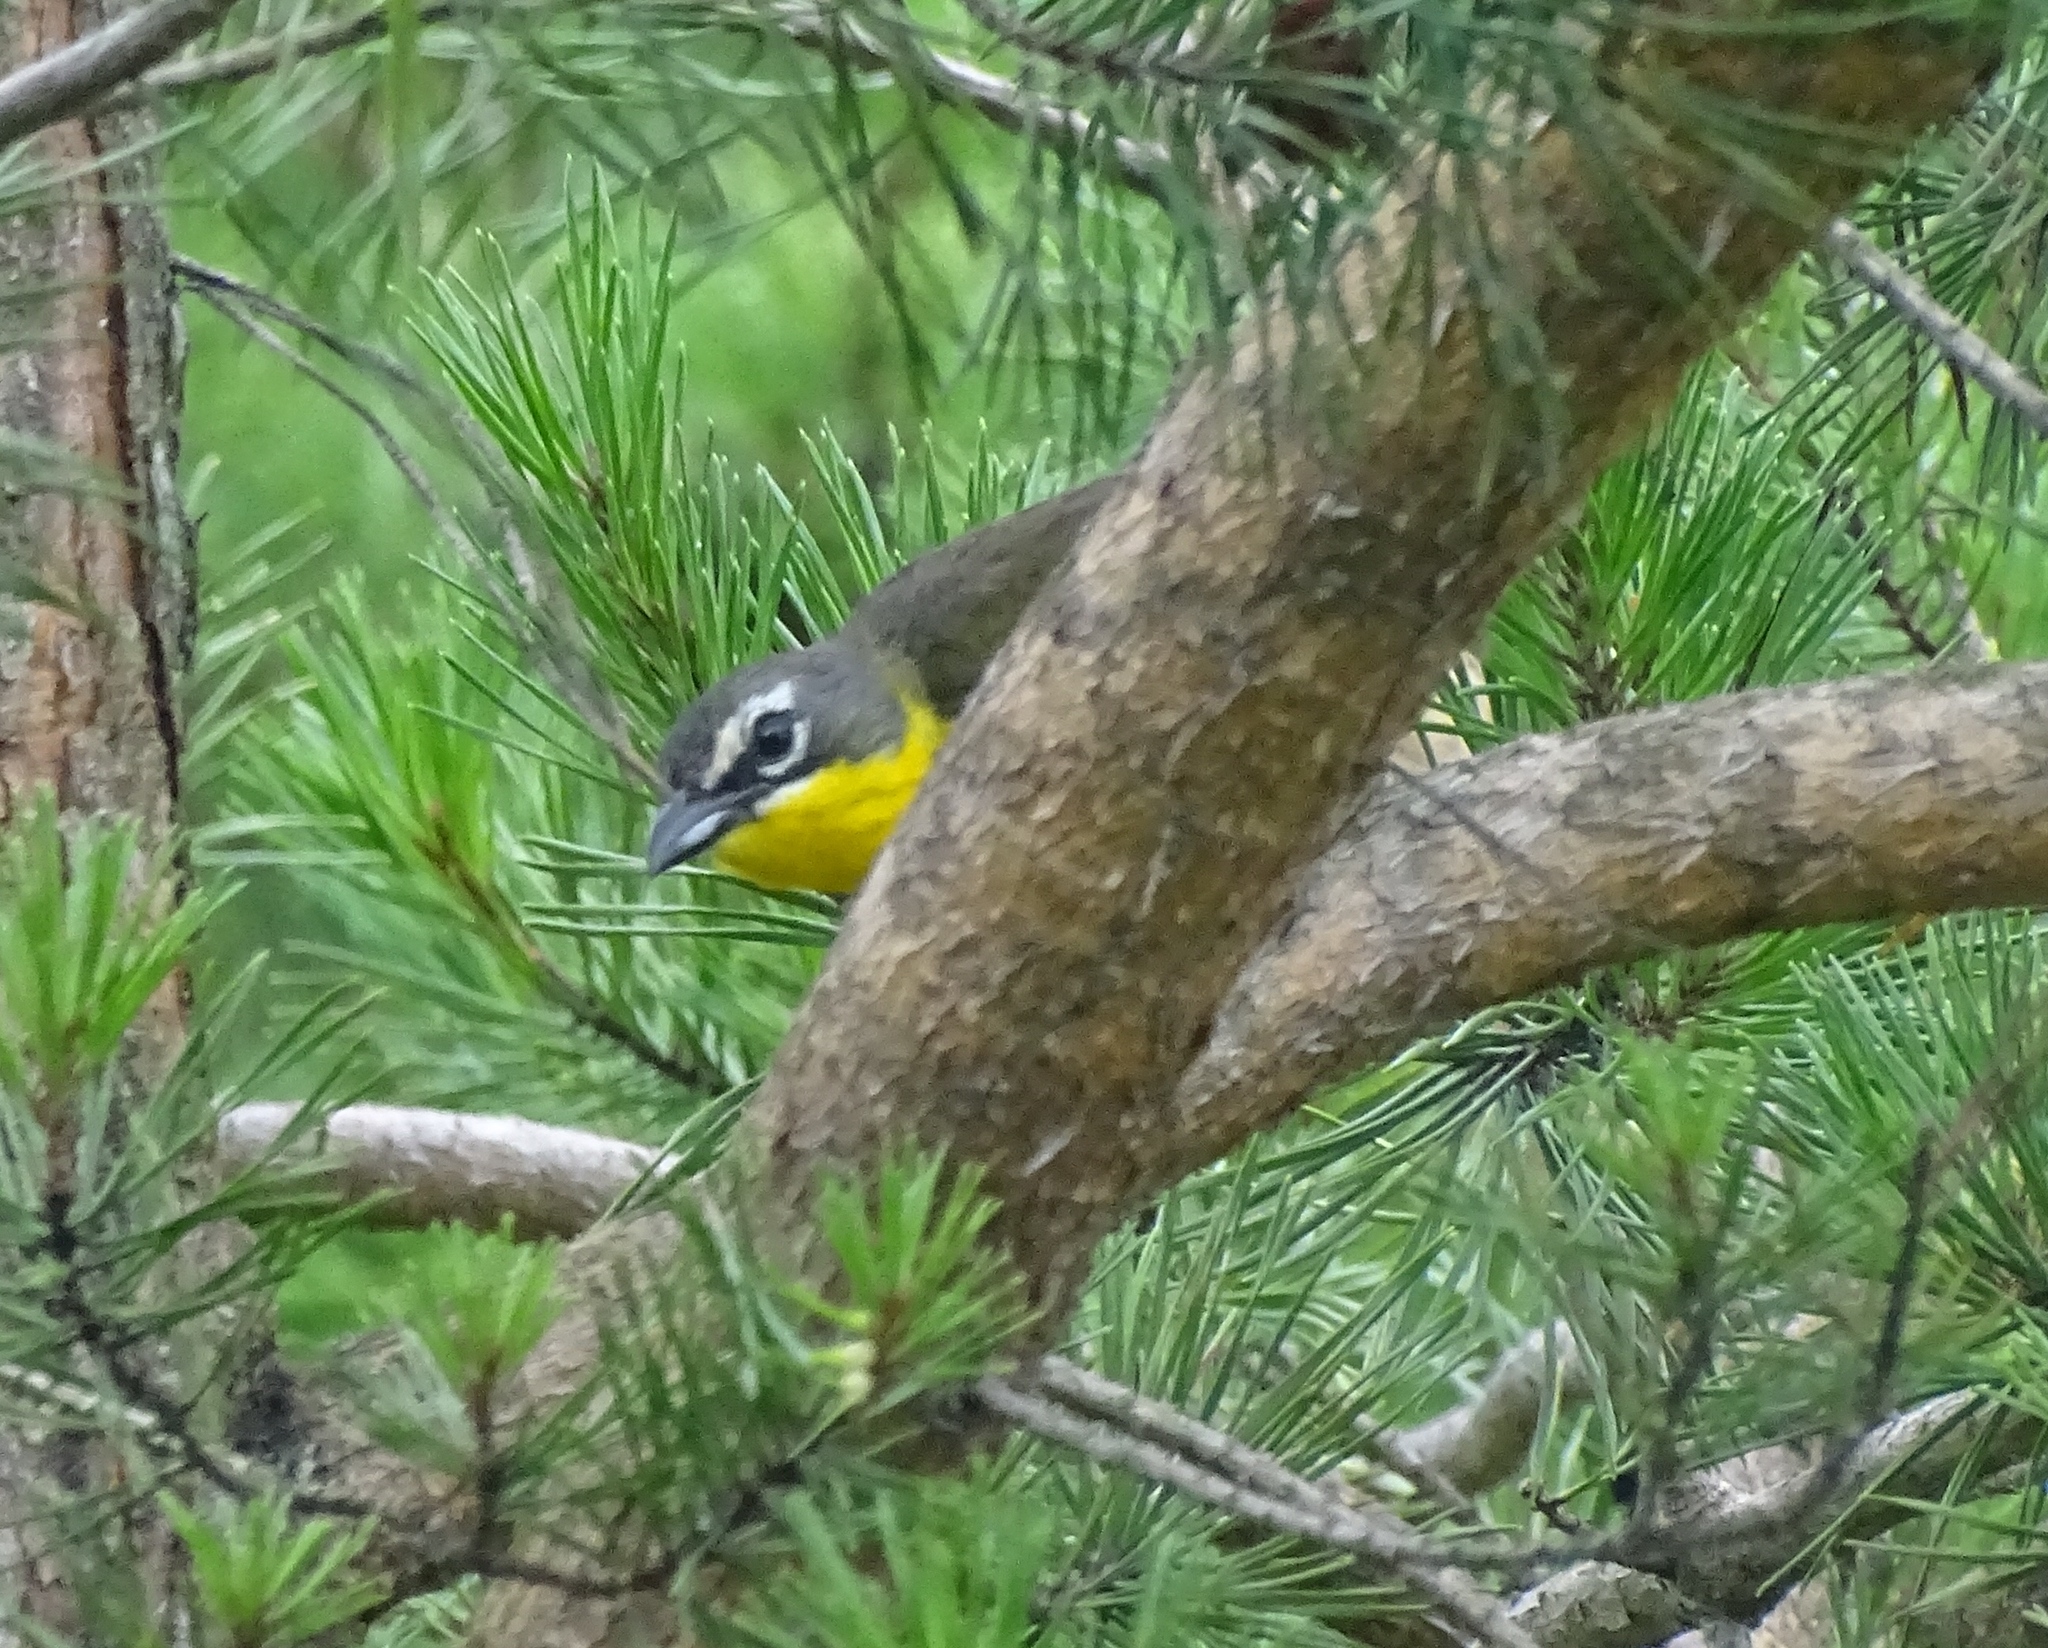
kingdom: Animalia
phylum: Chordata
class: Aves
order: Passeriformes
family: Parulidae
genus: Icteria
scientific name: Icteria virens
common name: Yellow-breasted chat
